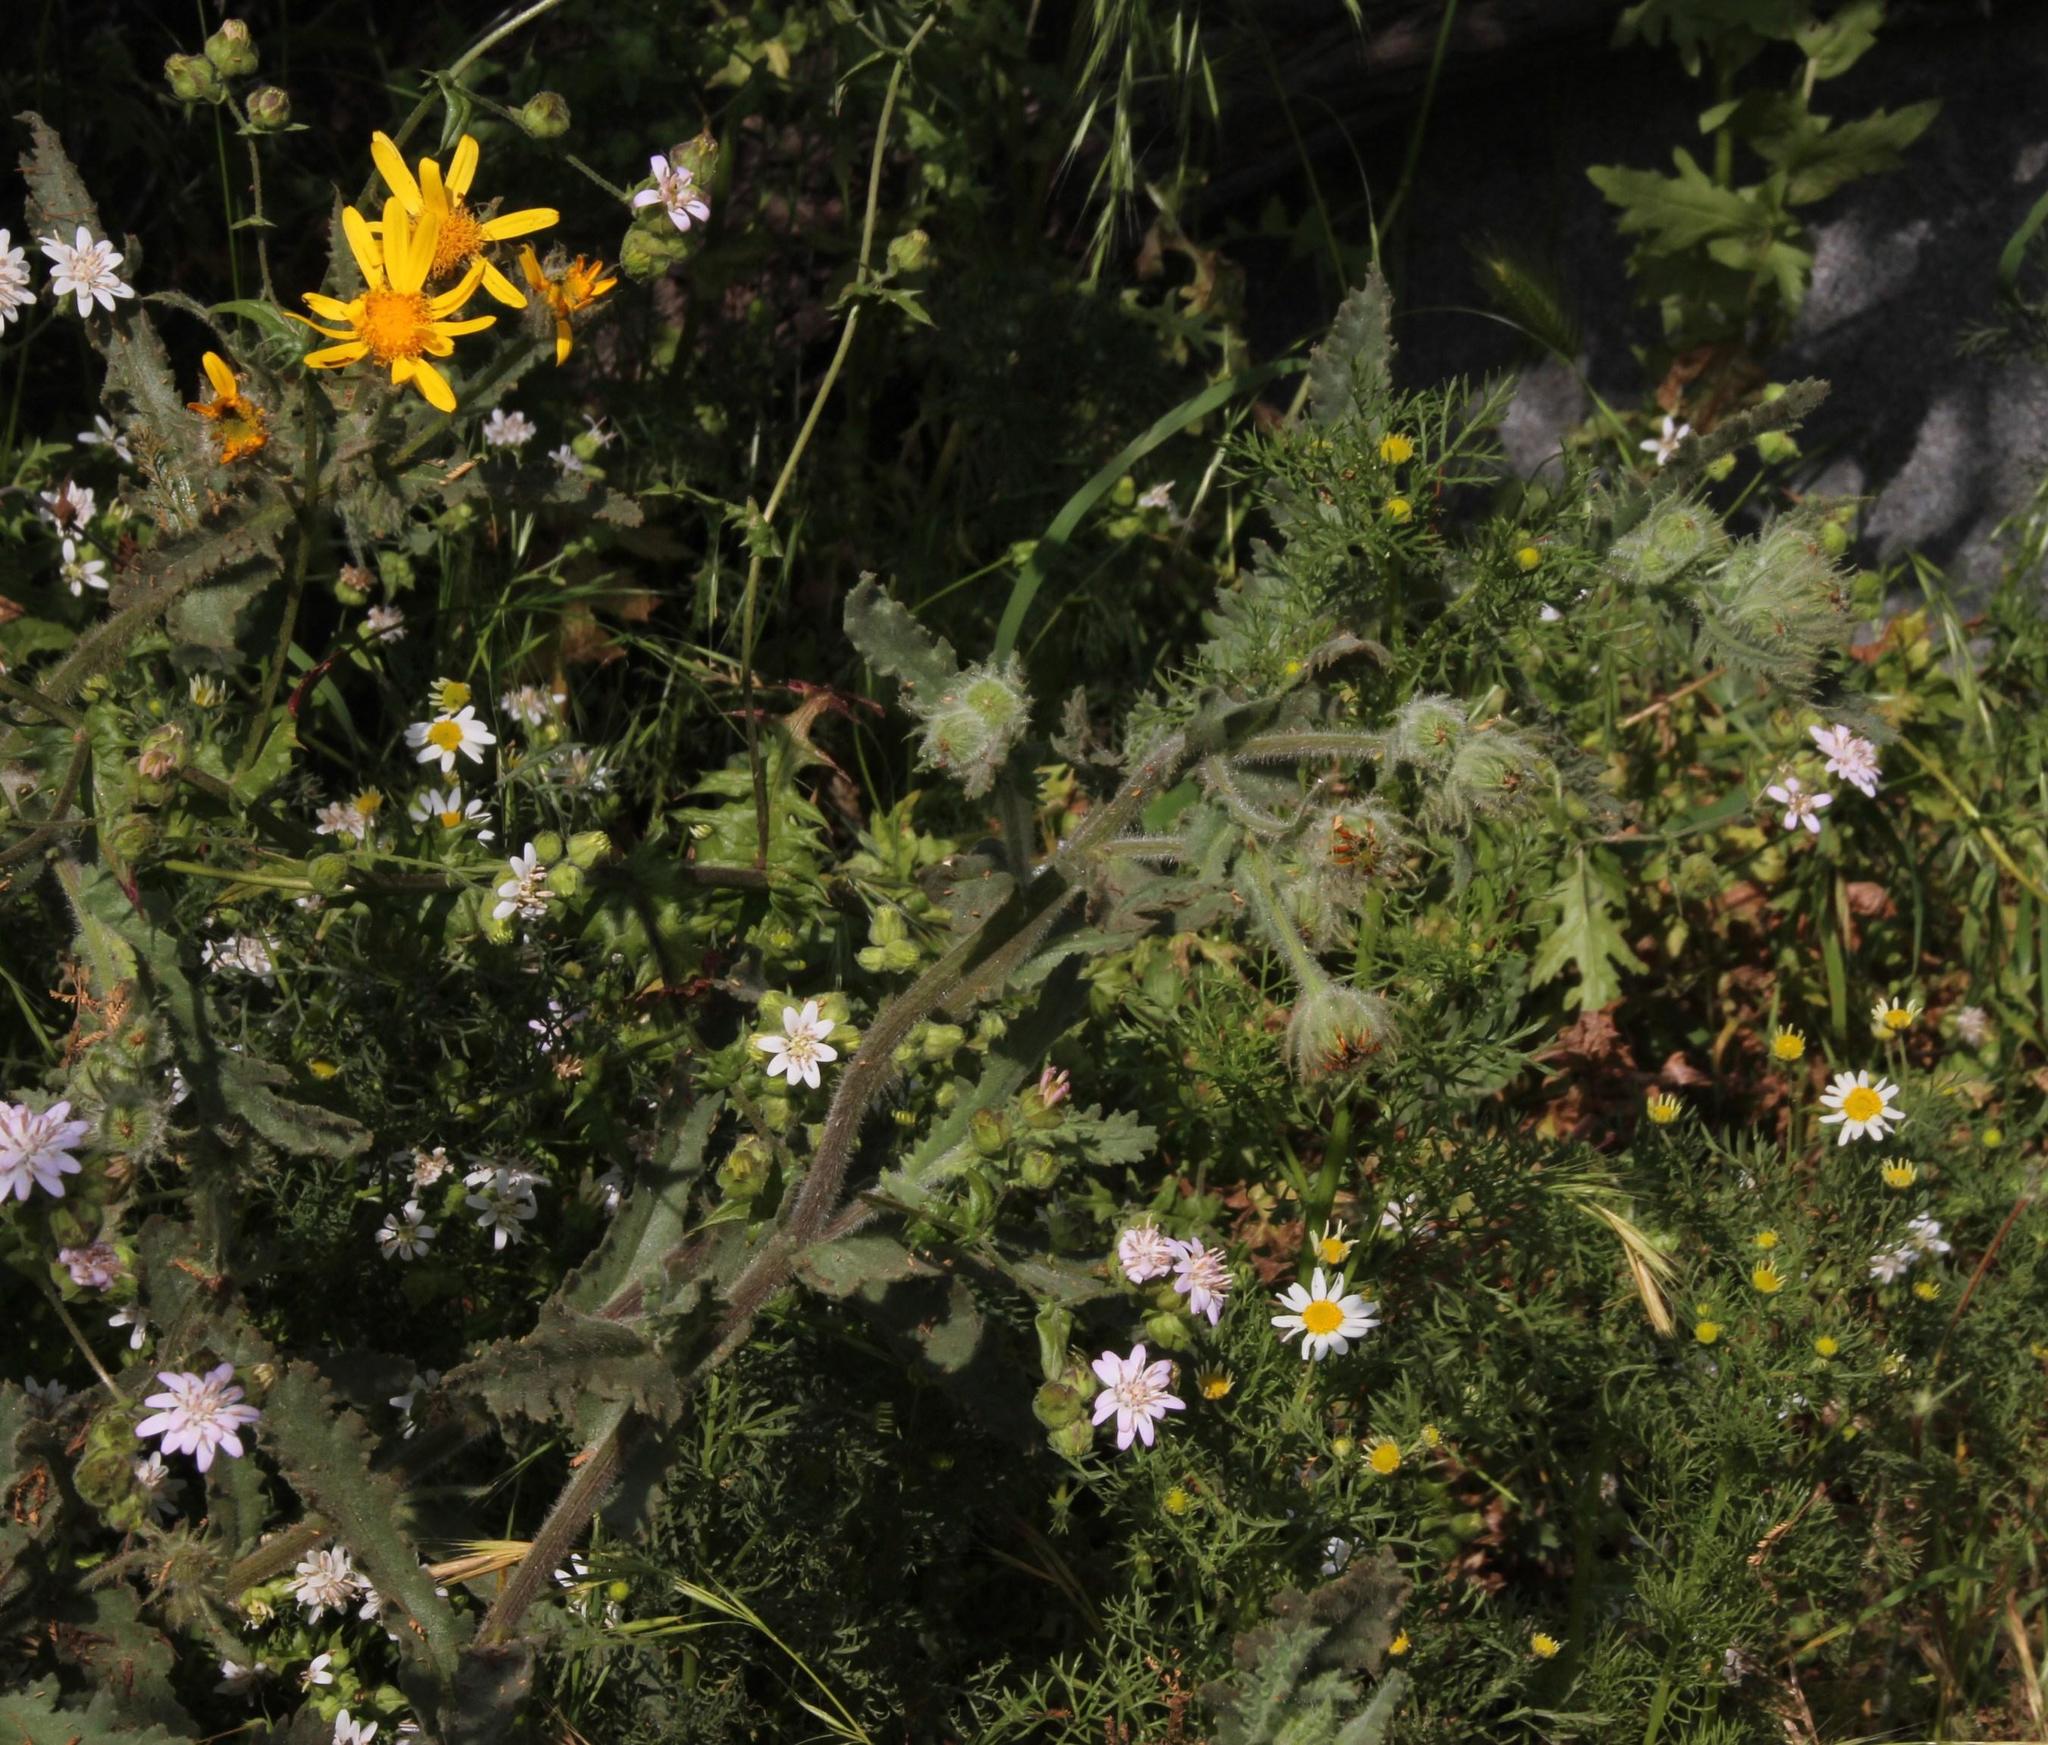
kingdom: Plantae
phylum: Tracheophyta
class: Magnoliopsida
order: Asterales
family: Asteraceae
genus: Senecio
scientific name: Senecio adenotrichius
